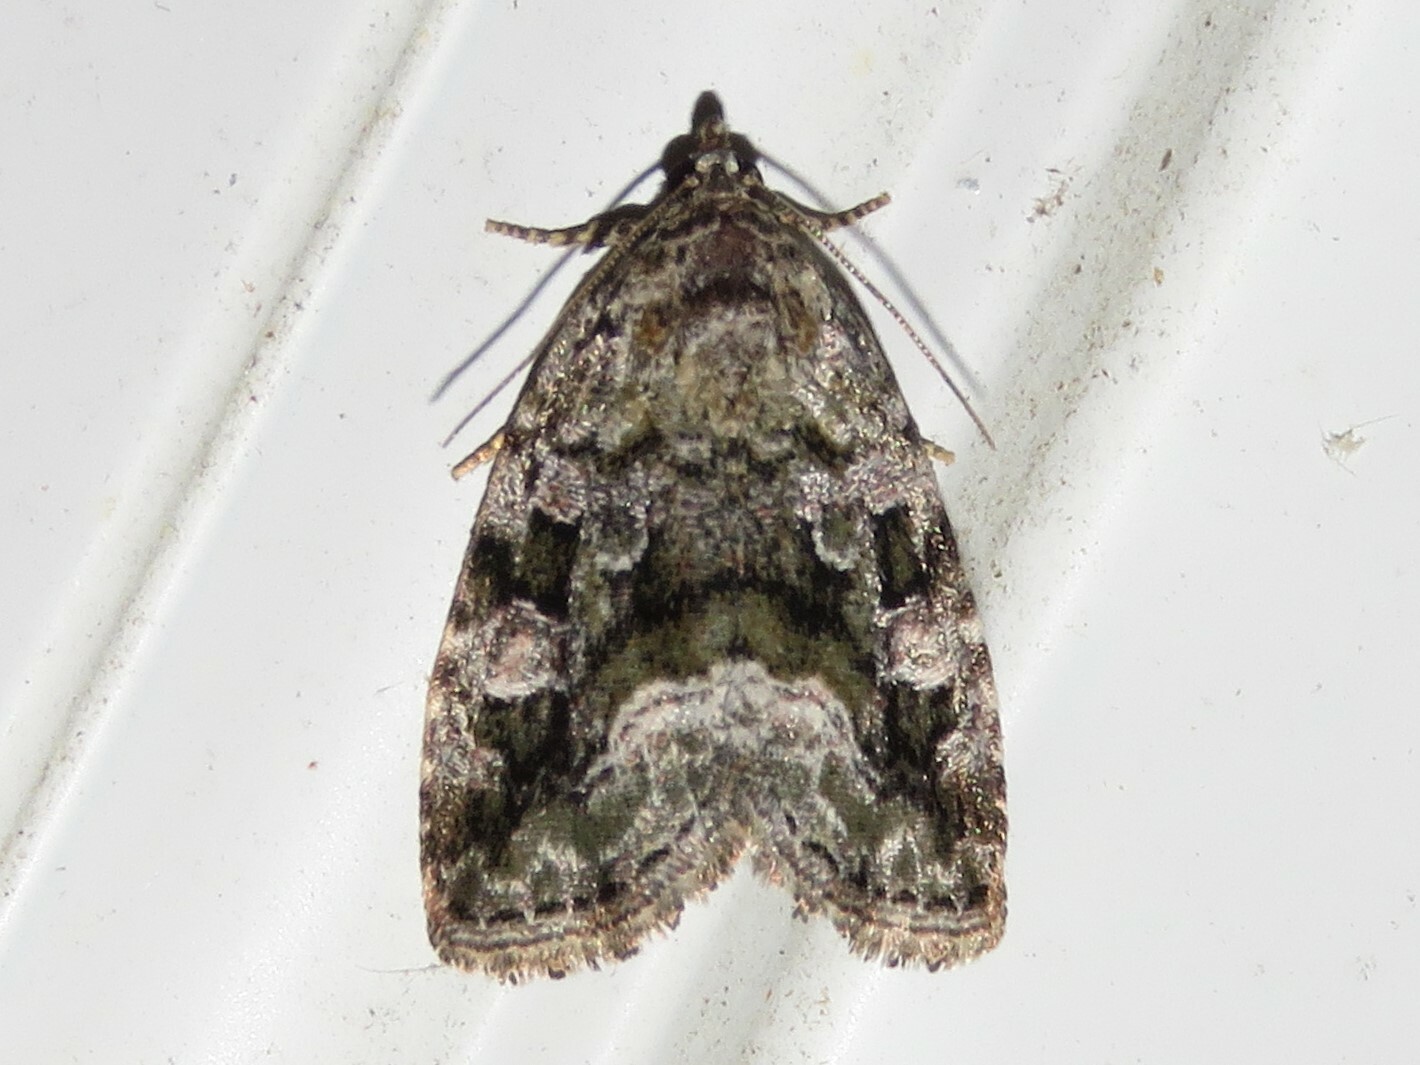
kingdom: Animalia
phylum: Arthropoda
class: Insecta
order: Lepidoptera
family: Noctuidae
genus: Protodeltote
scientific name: Protodeltote muscosula
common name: Large mossy glyph
